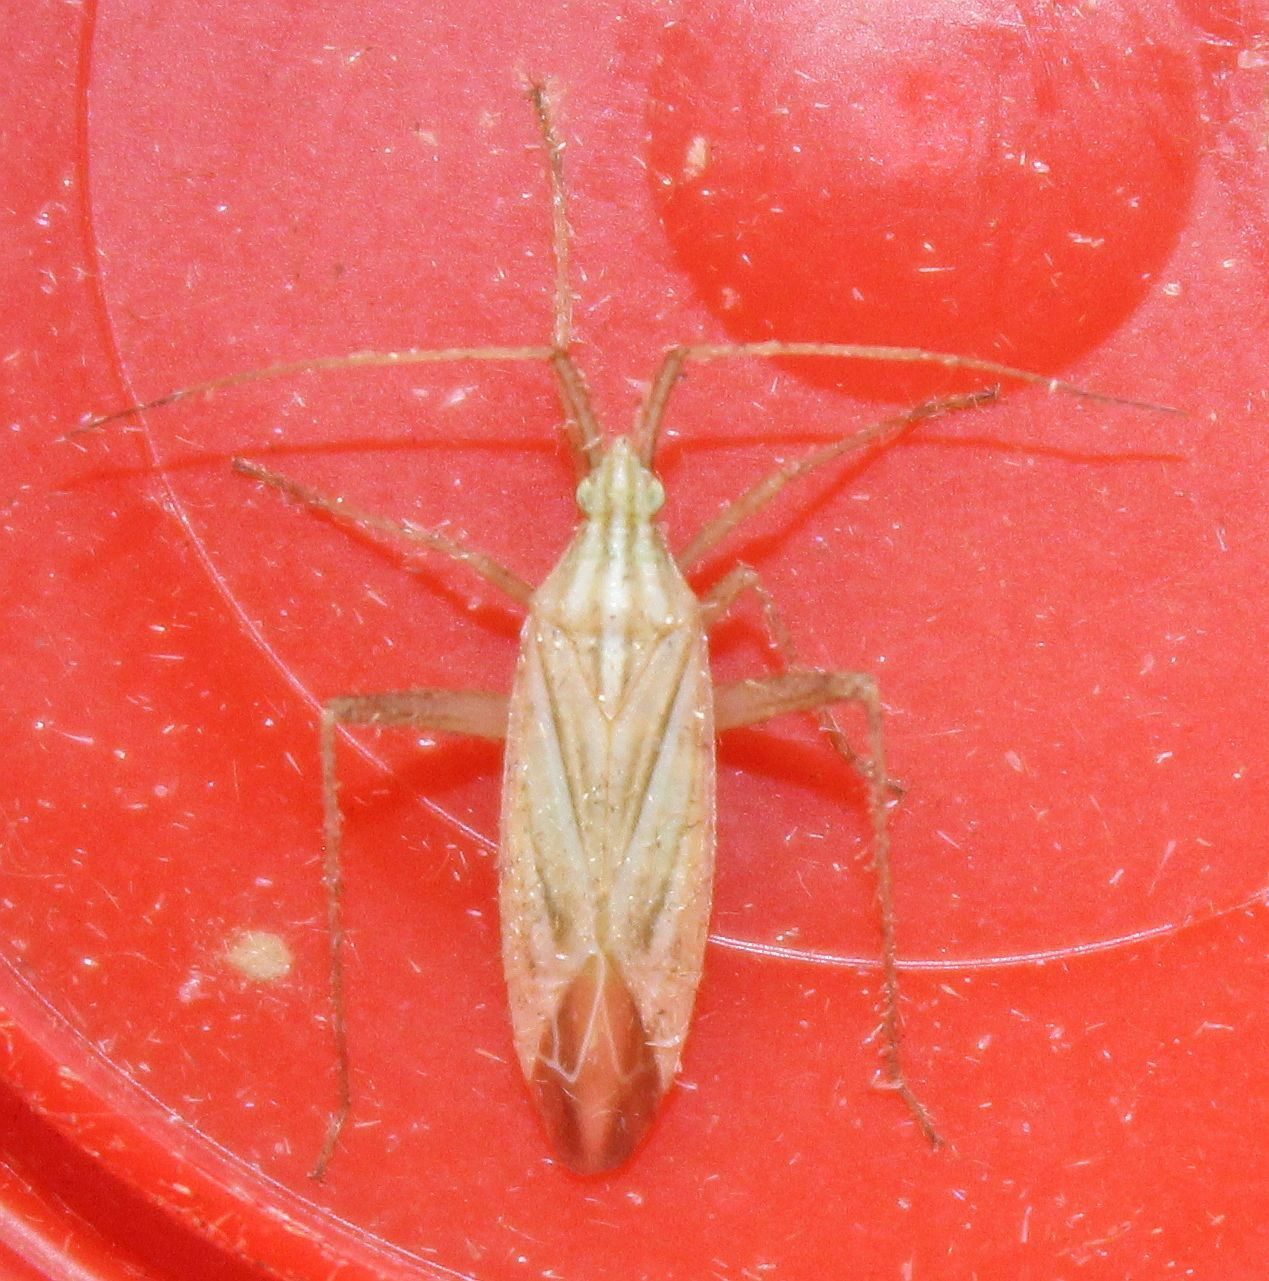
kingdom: Animalia
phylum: Arthropoda
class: Insecta
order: Hemiptera
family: Miridae
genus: Miridius
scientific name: Miridius quadrivirgatus
